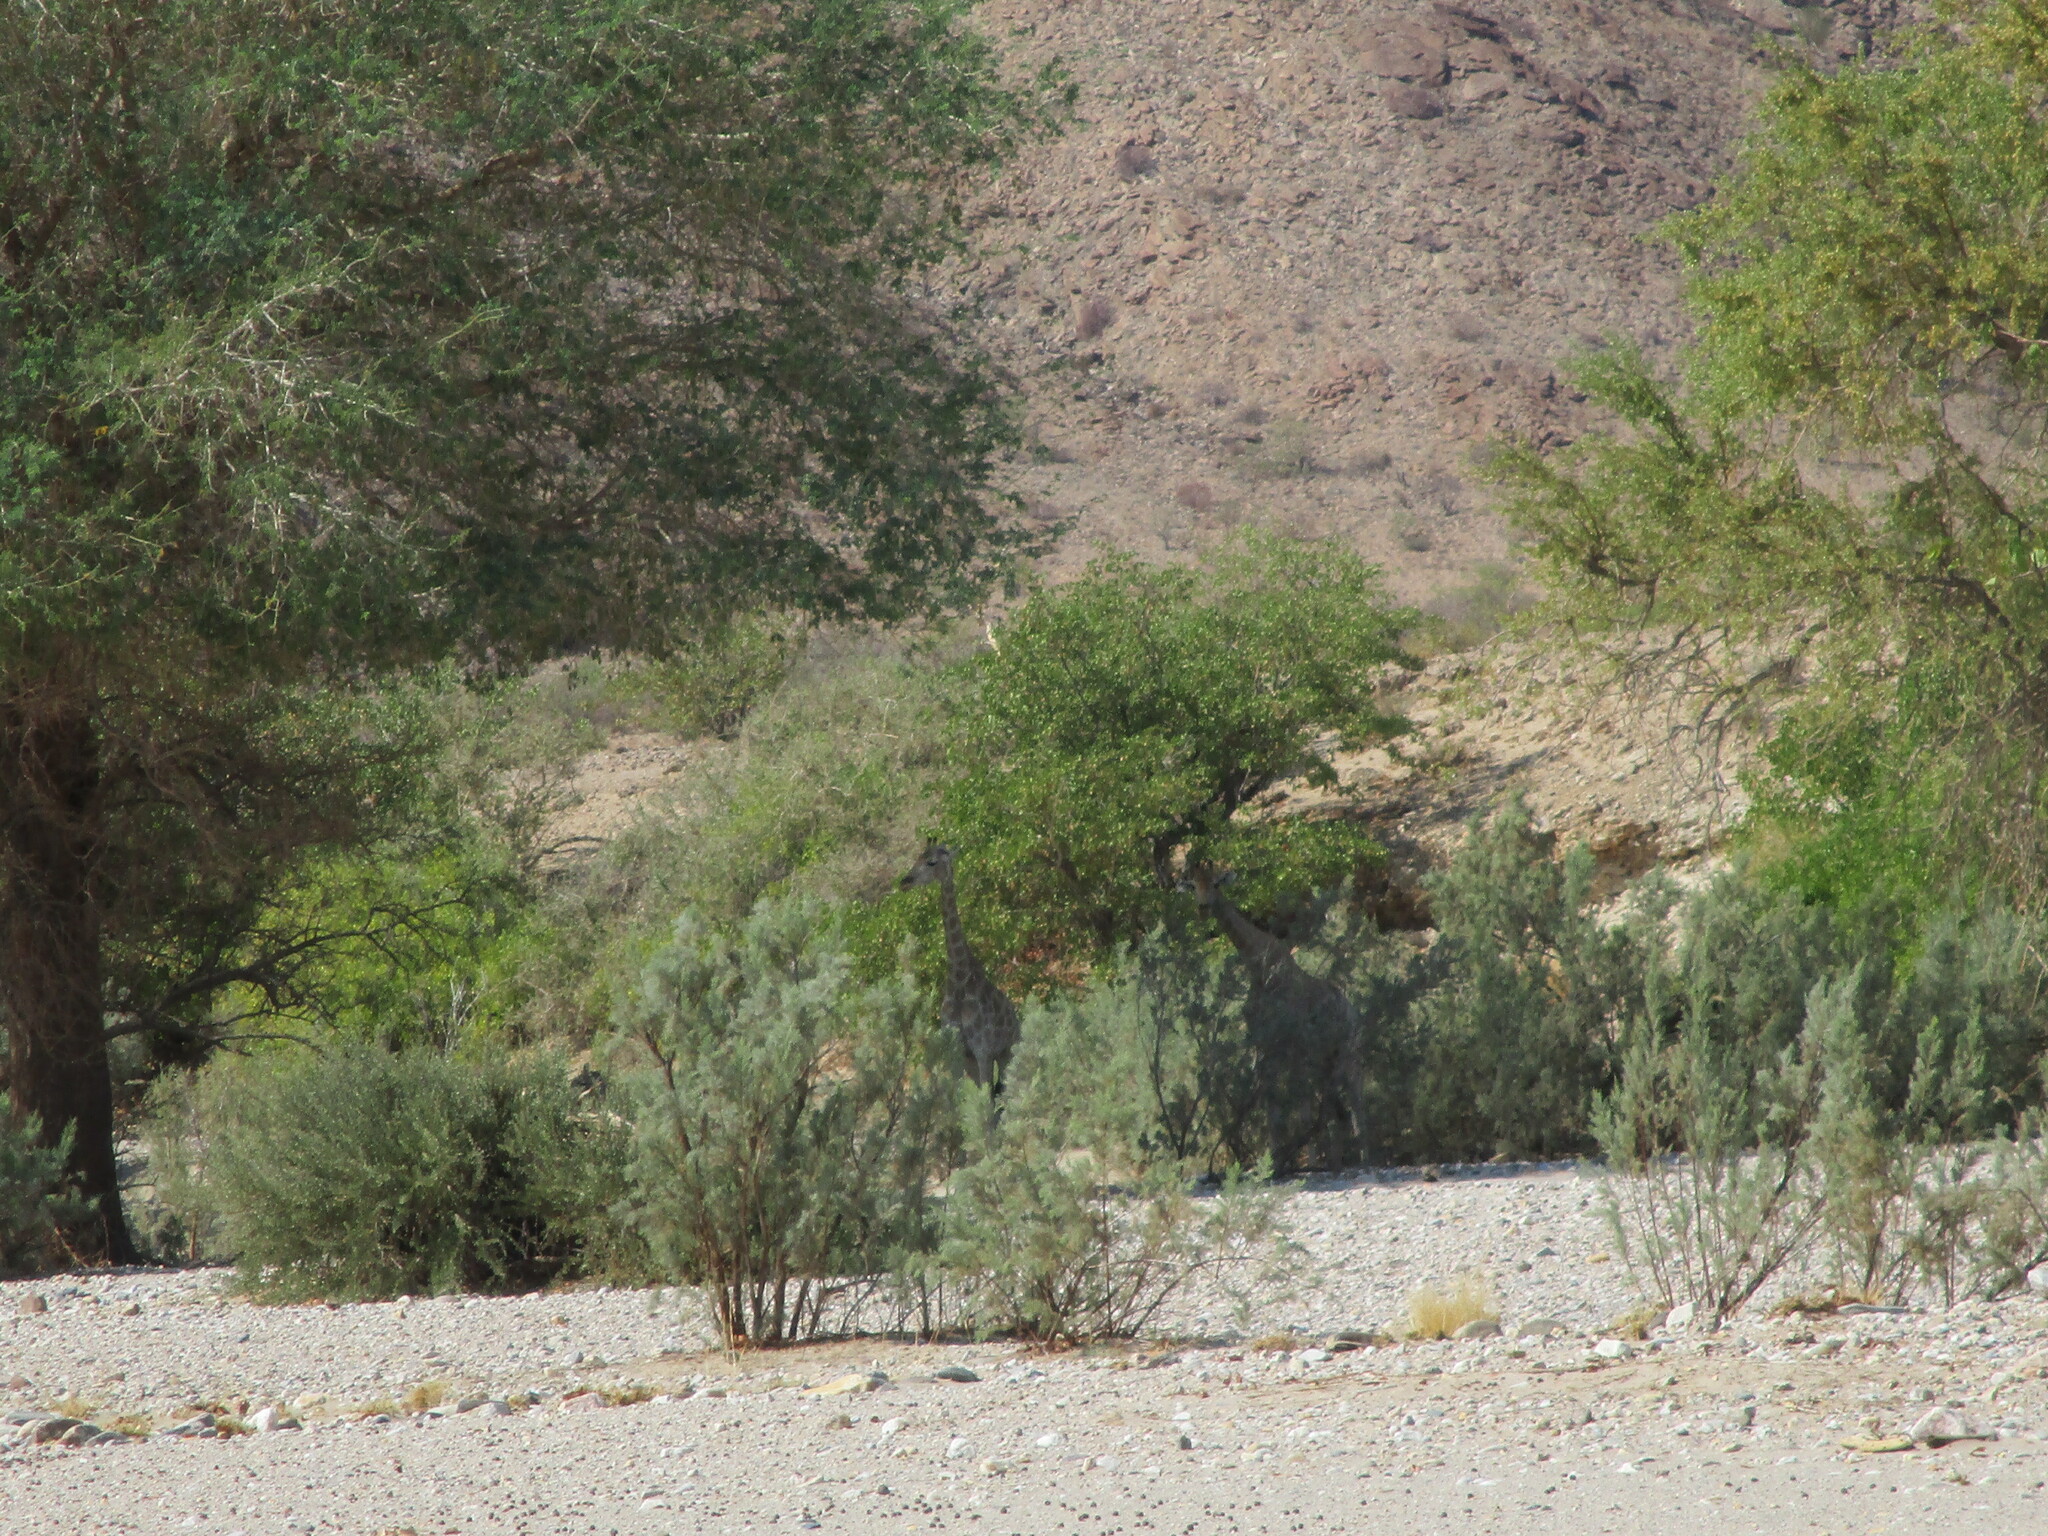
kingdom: Animalia
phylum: Chordata
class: Mammalia
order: Artiodactyla
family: Giraffidae
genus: Giraffa
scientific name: Giraffa giraffa
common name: Southern giraffe
